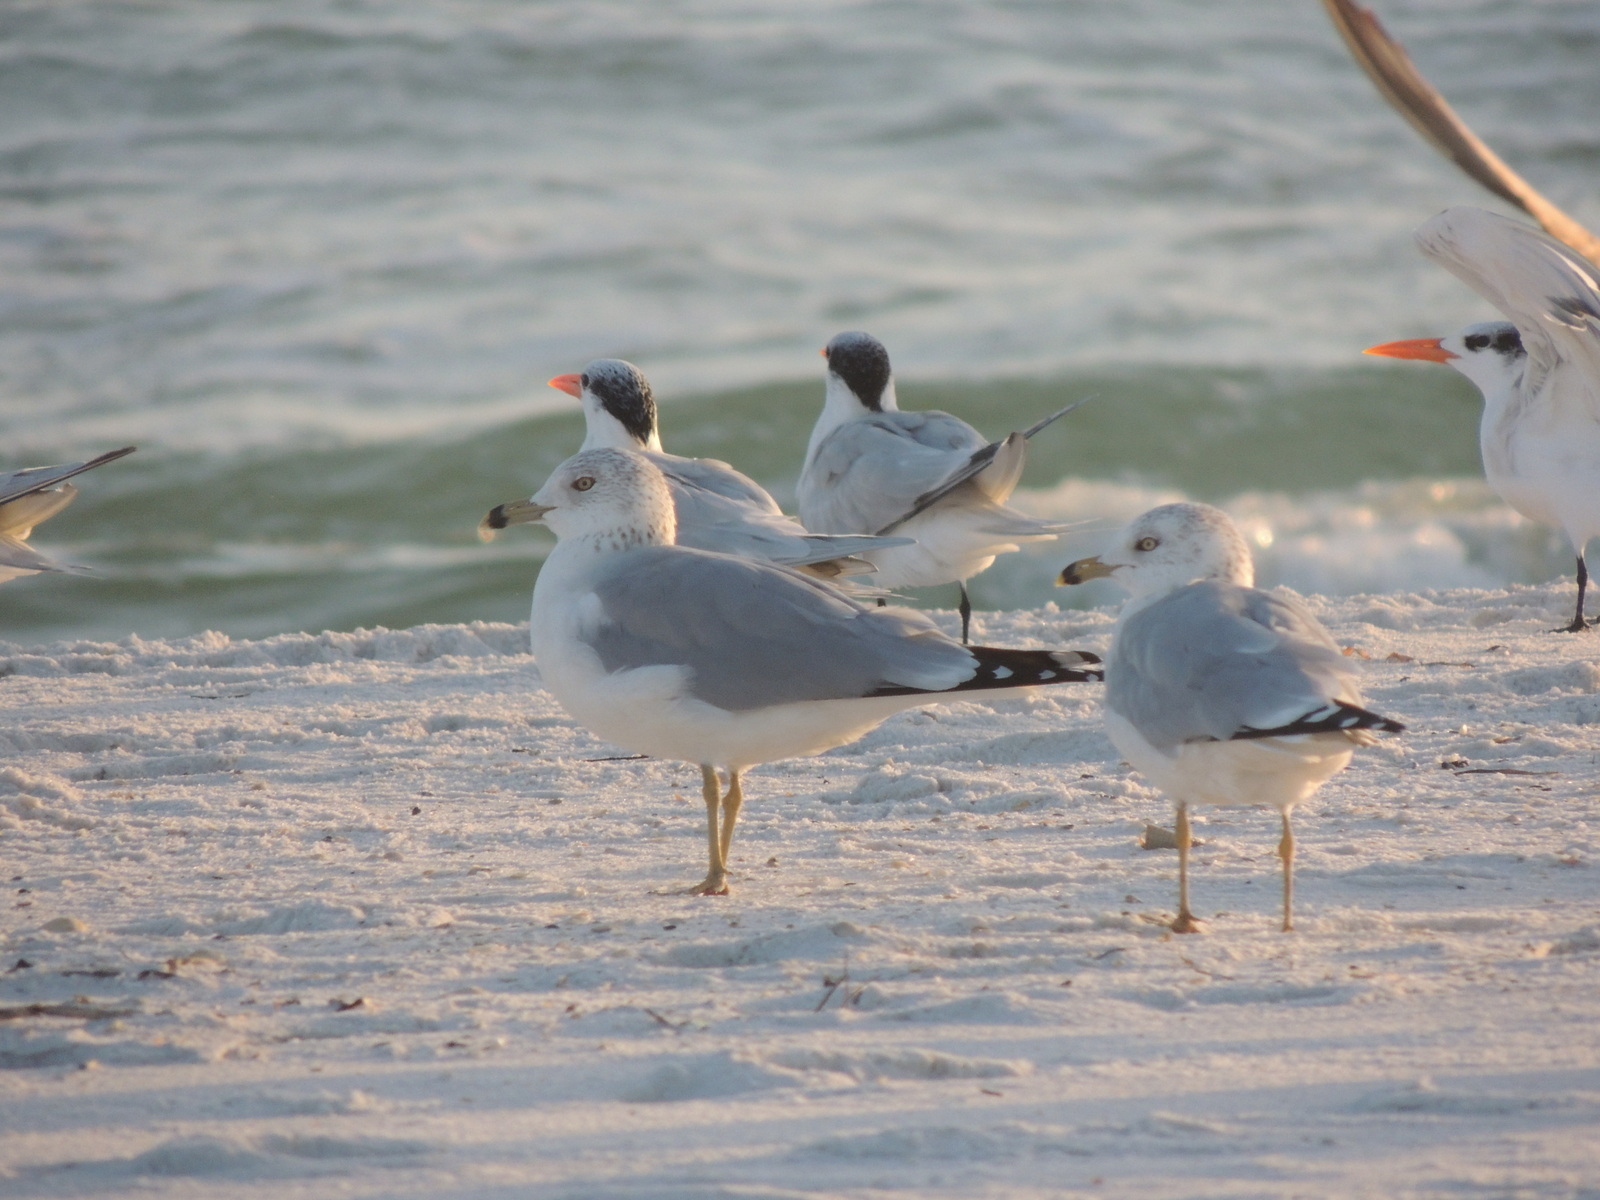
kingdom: Animalia
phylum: Chordata
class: Aves
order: Charadriiformes
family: Laridae
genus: Larus
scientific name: Larus delawarensis
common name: Ring-billed gull
